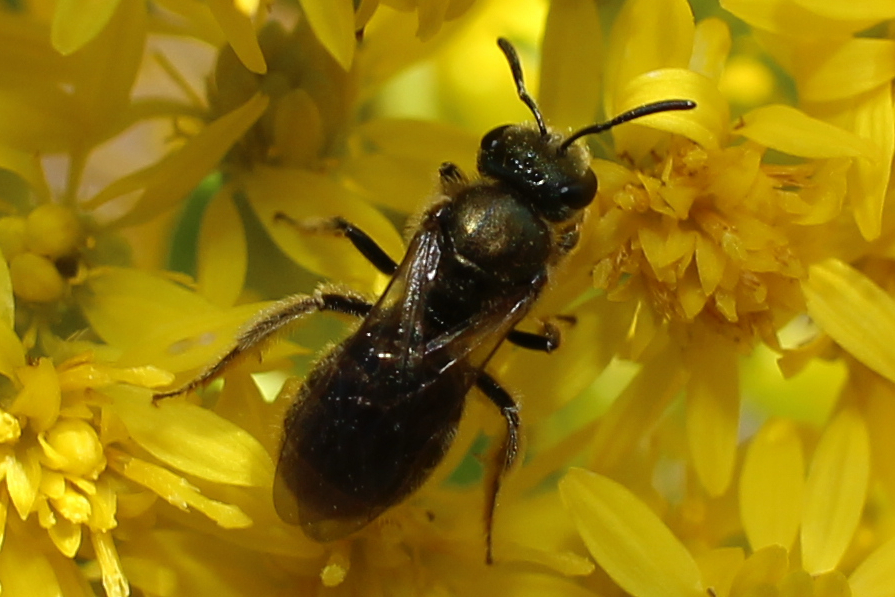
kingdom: Animalia
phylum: Arthropoda
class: Insecta
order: Hymenoptera
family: Halictidae
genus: Dialictus
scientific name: Dialictus
